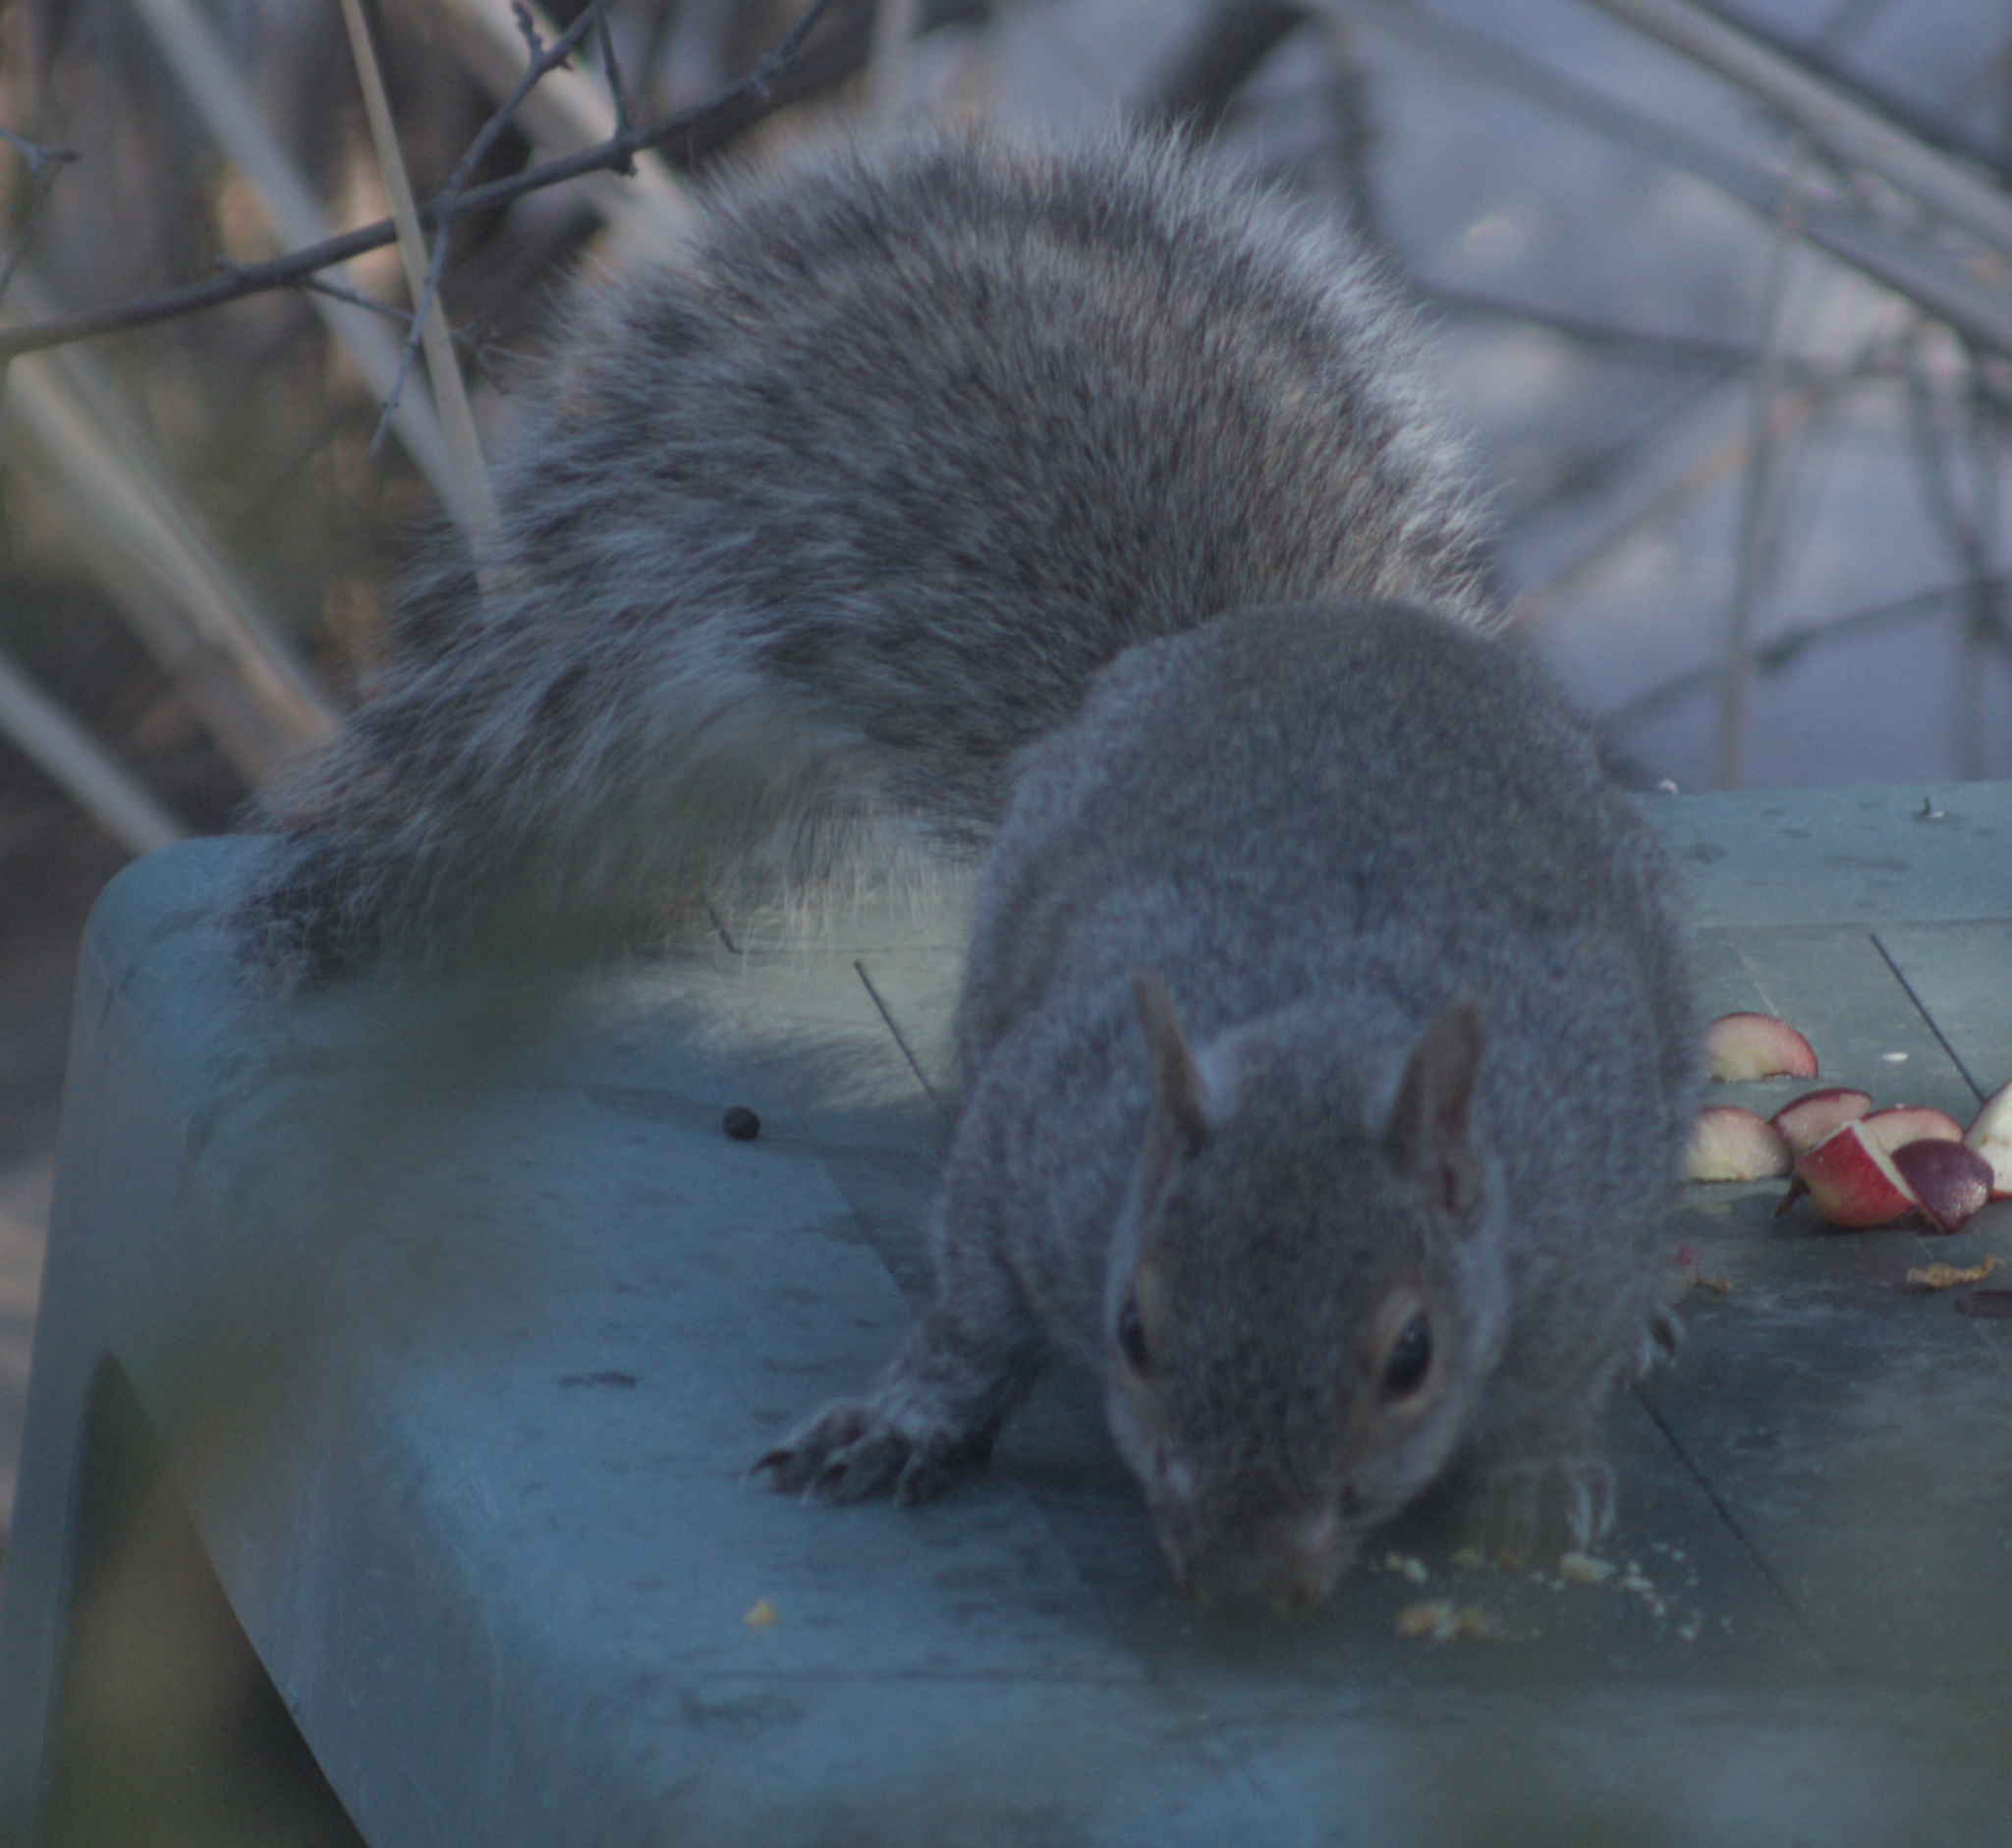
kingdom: Animalia
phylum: Chordata
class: Mammalia
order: Rodentia
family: Sciuridae
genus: Sciurus
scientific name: Sciurus carolinensis
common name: Eastern gray squirrel
